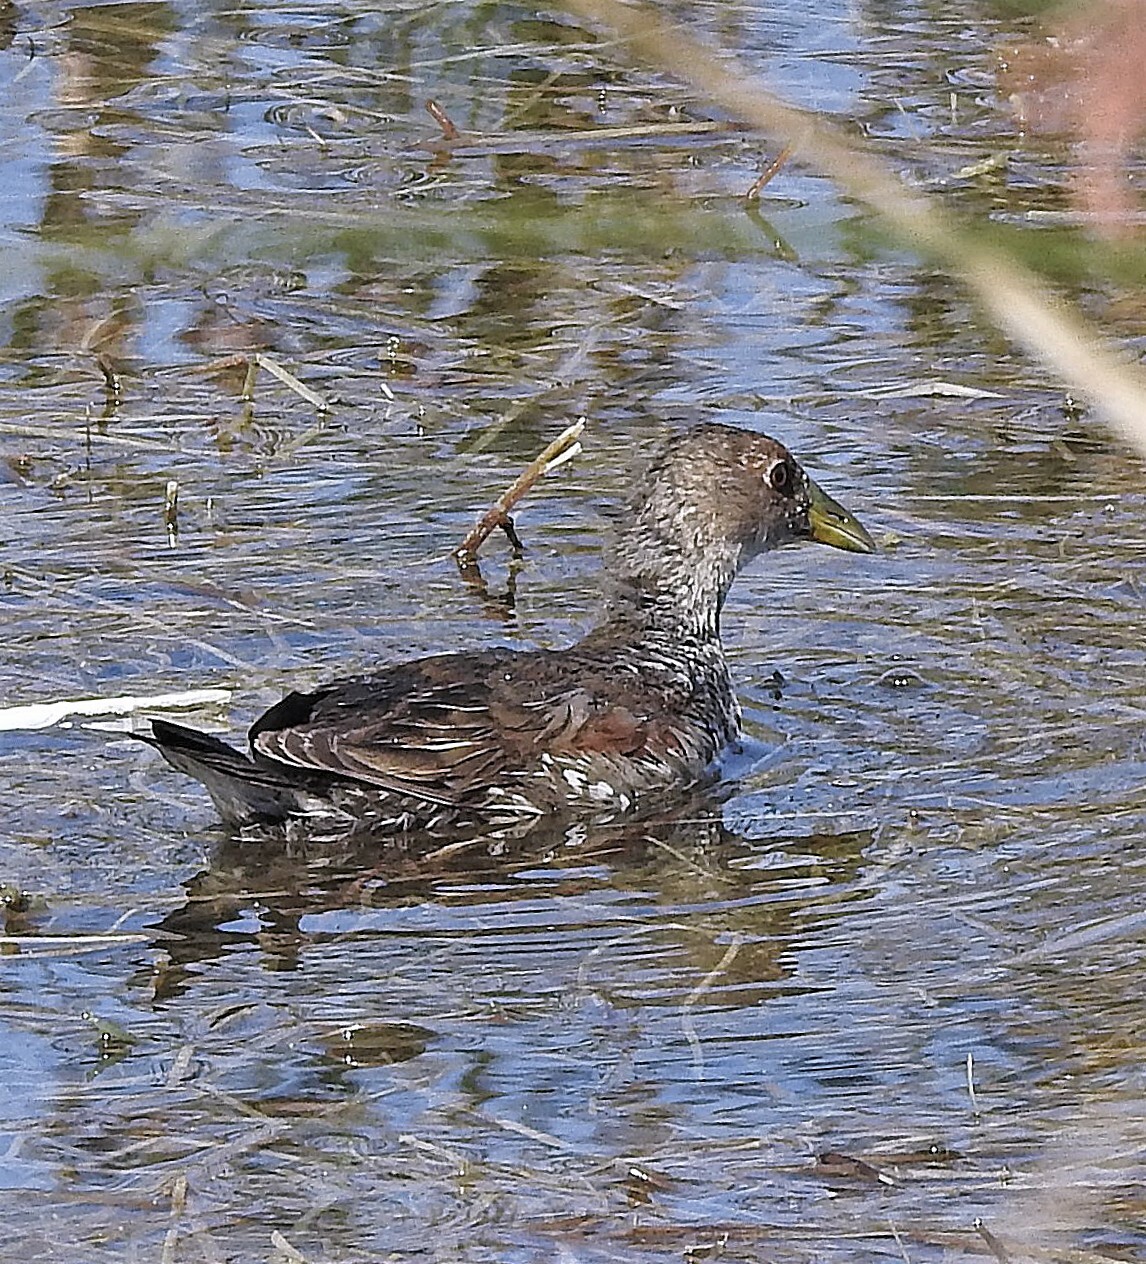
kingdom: Animalia
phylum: Chordata
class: Aves
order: Gruiformes
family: Rallidae
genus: Gallinula
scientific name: Gallinula melanops
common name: Spot-flanked gallinule
